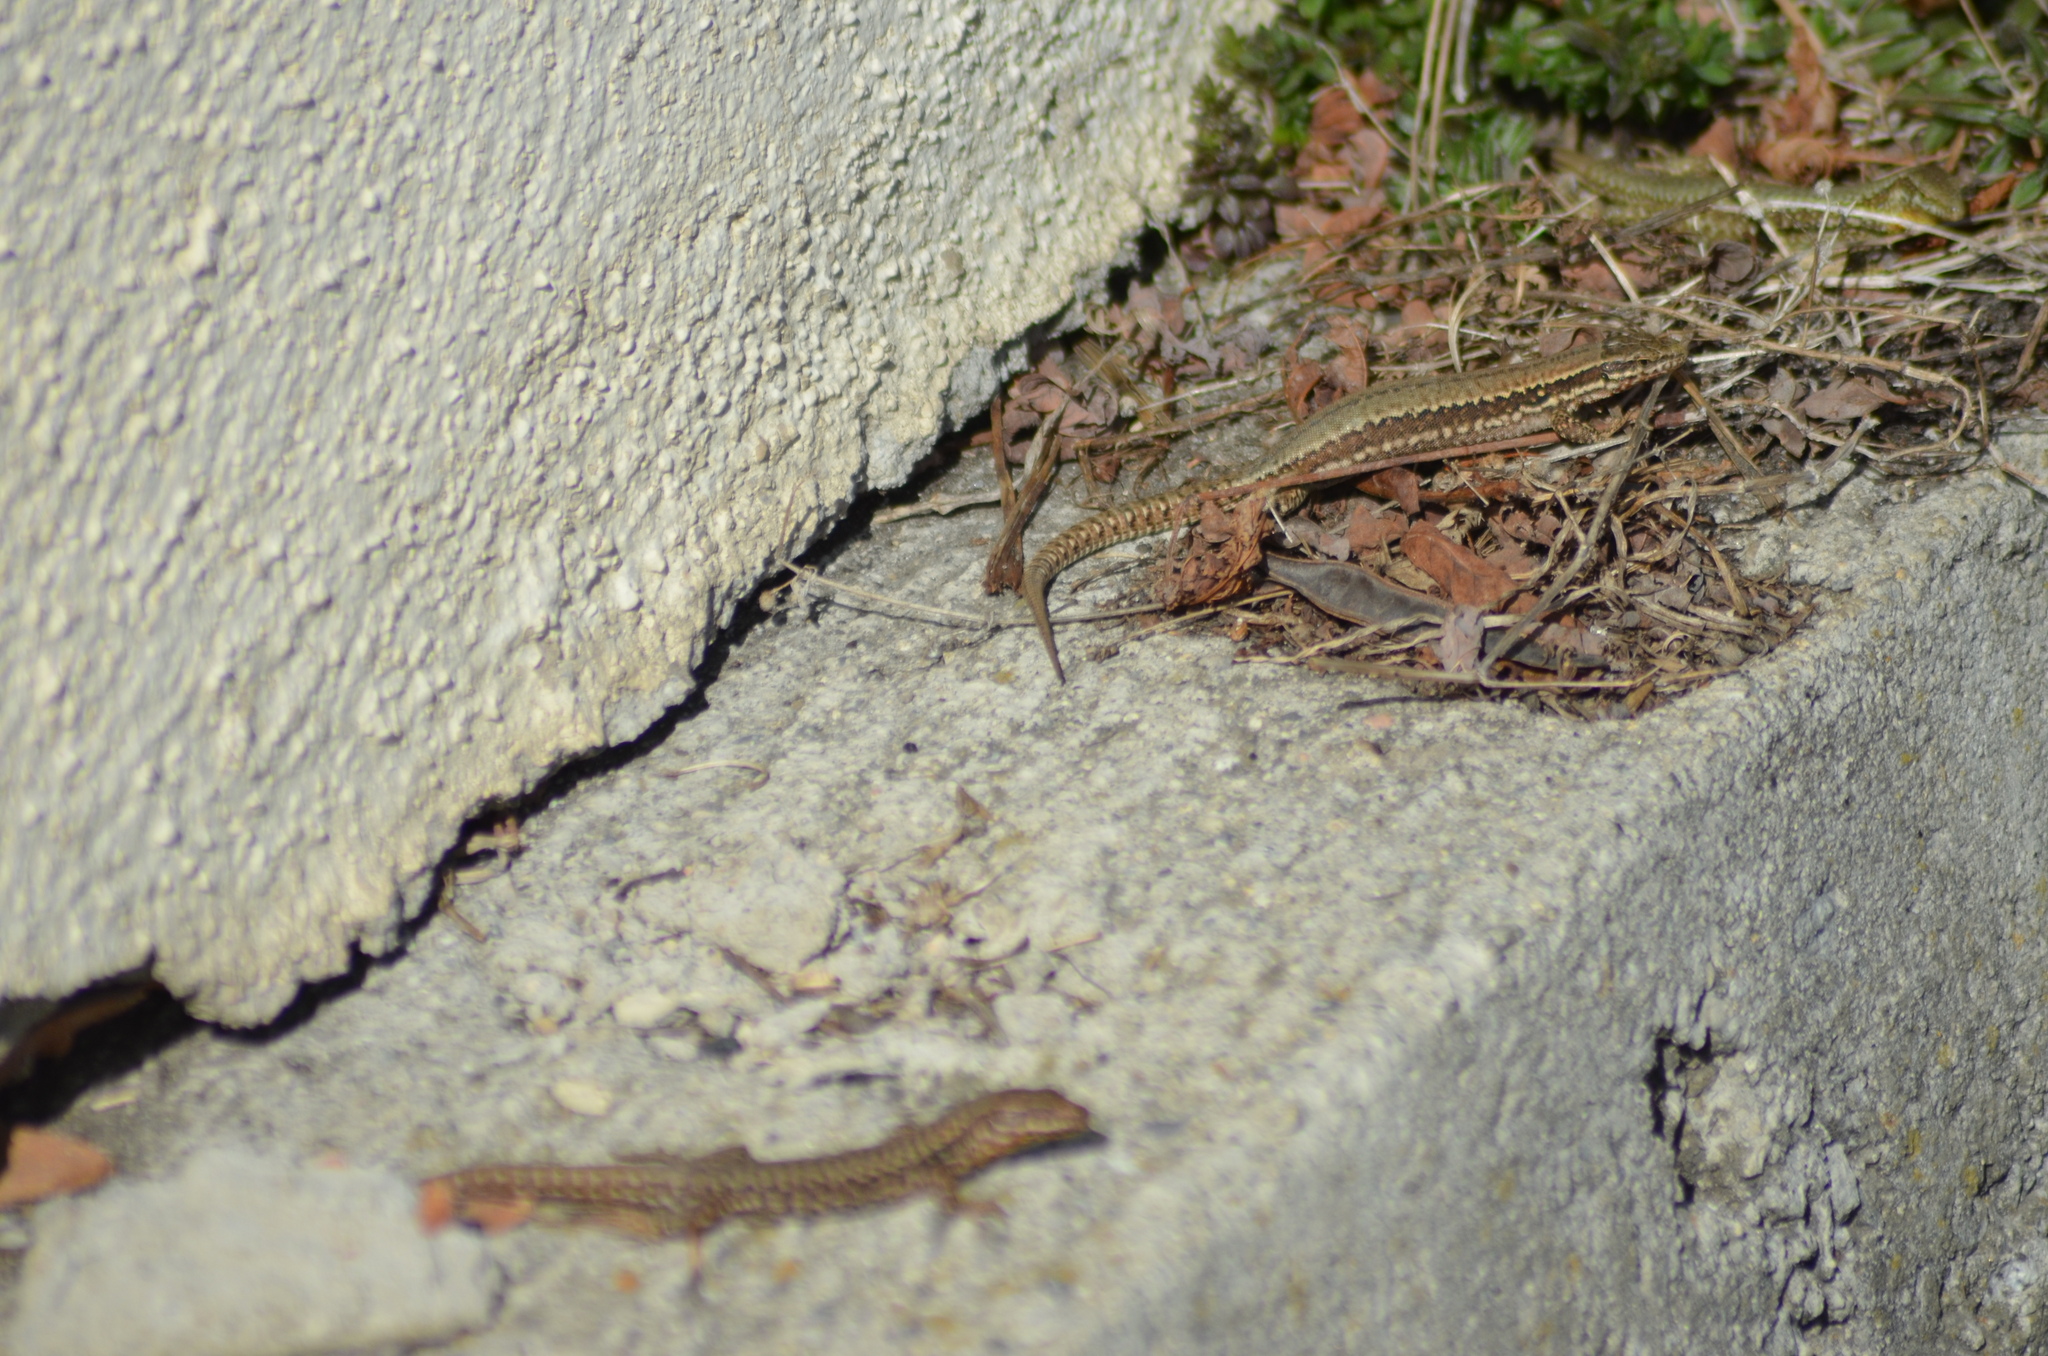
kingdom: Animalia
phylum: Chordata
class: Squamata
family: Lacertidae
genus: Podarcis
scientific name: Podarcis muralis
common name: Common wall lizard
